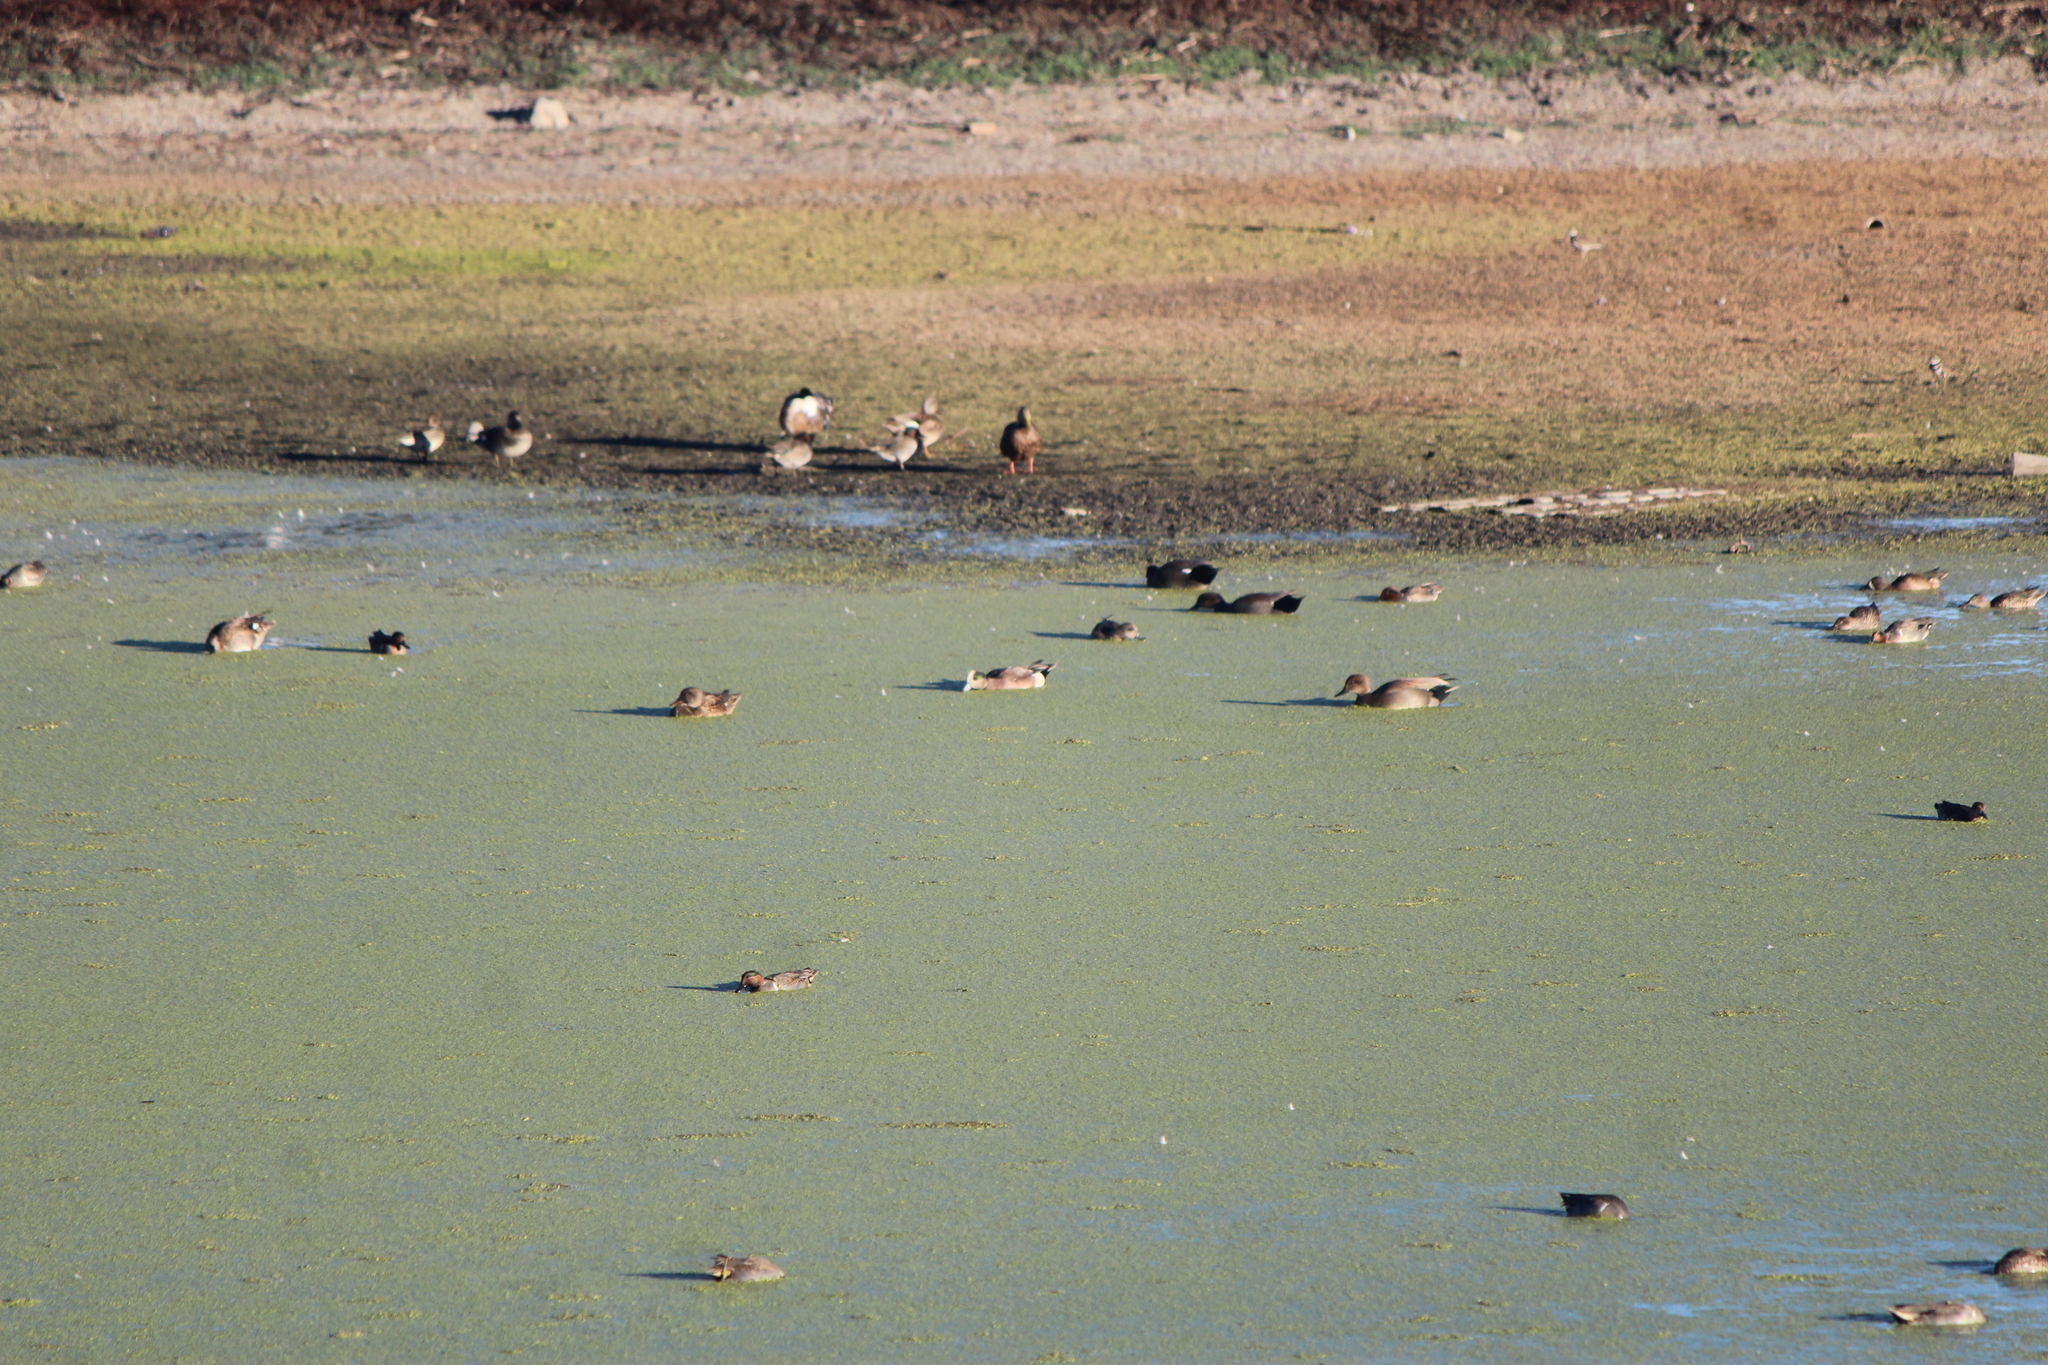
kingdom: Animalia
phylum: Chordata
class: Aves
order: Anseriformes
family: Anatidae
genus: Anas
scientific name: Anas crecca
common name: Eurasian teal
